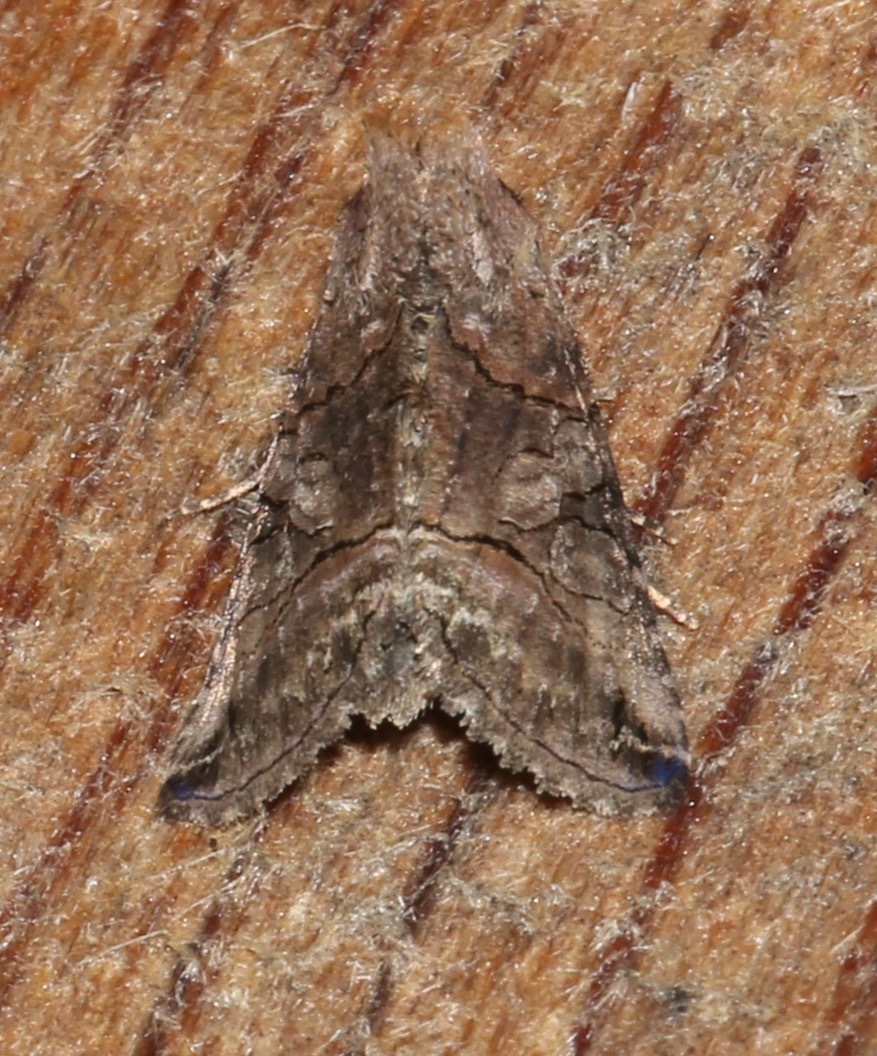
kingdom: Animalia
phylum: Arthropoda
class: Insecta
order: Lepidoptera
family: Noctuidae
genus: Abrostola
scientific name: Abrostola urentis
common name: Spectacled nettle moth
